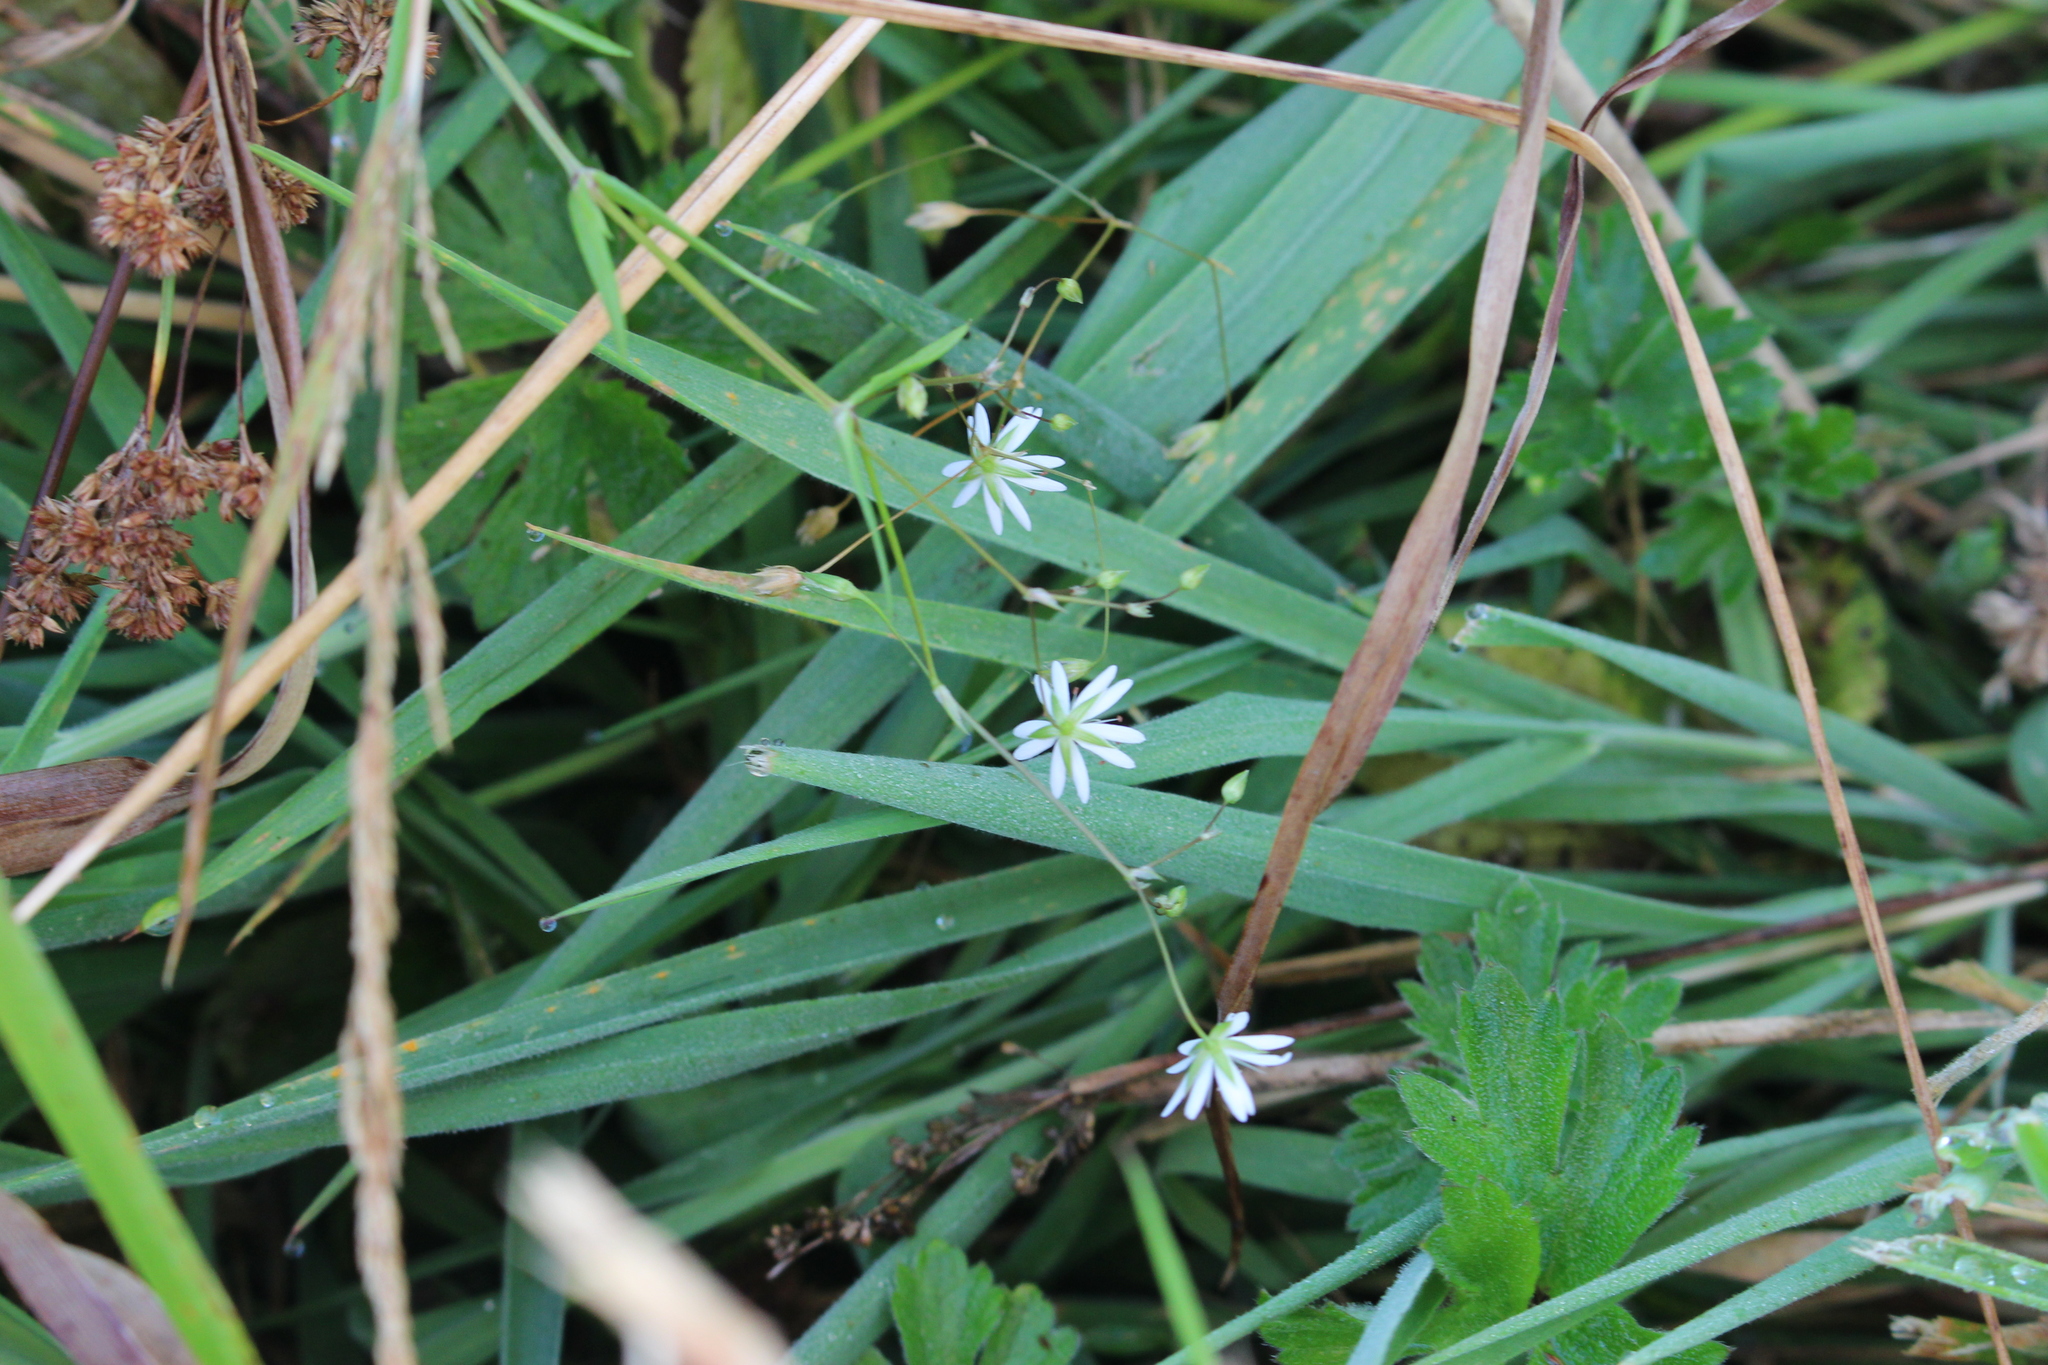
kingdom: Plantae
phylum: Tracheophyta
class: Magnoliopsida
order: Caryophyllales
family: Caryophyllaceae
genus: Stellaria
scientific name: Stellaria graminea
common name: Grass-like starwort
